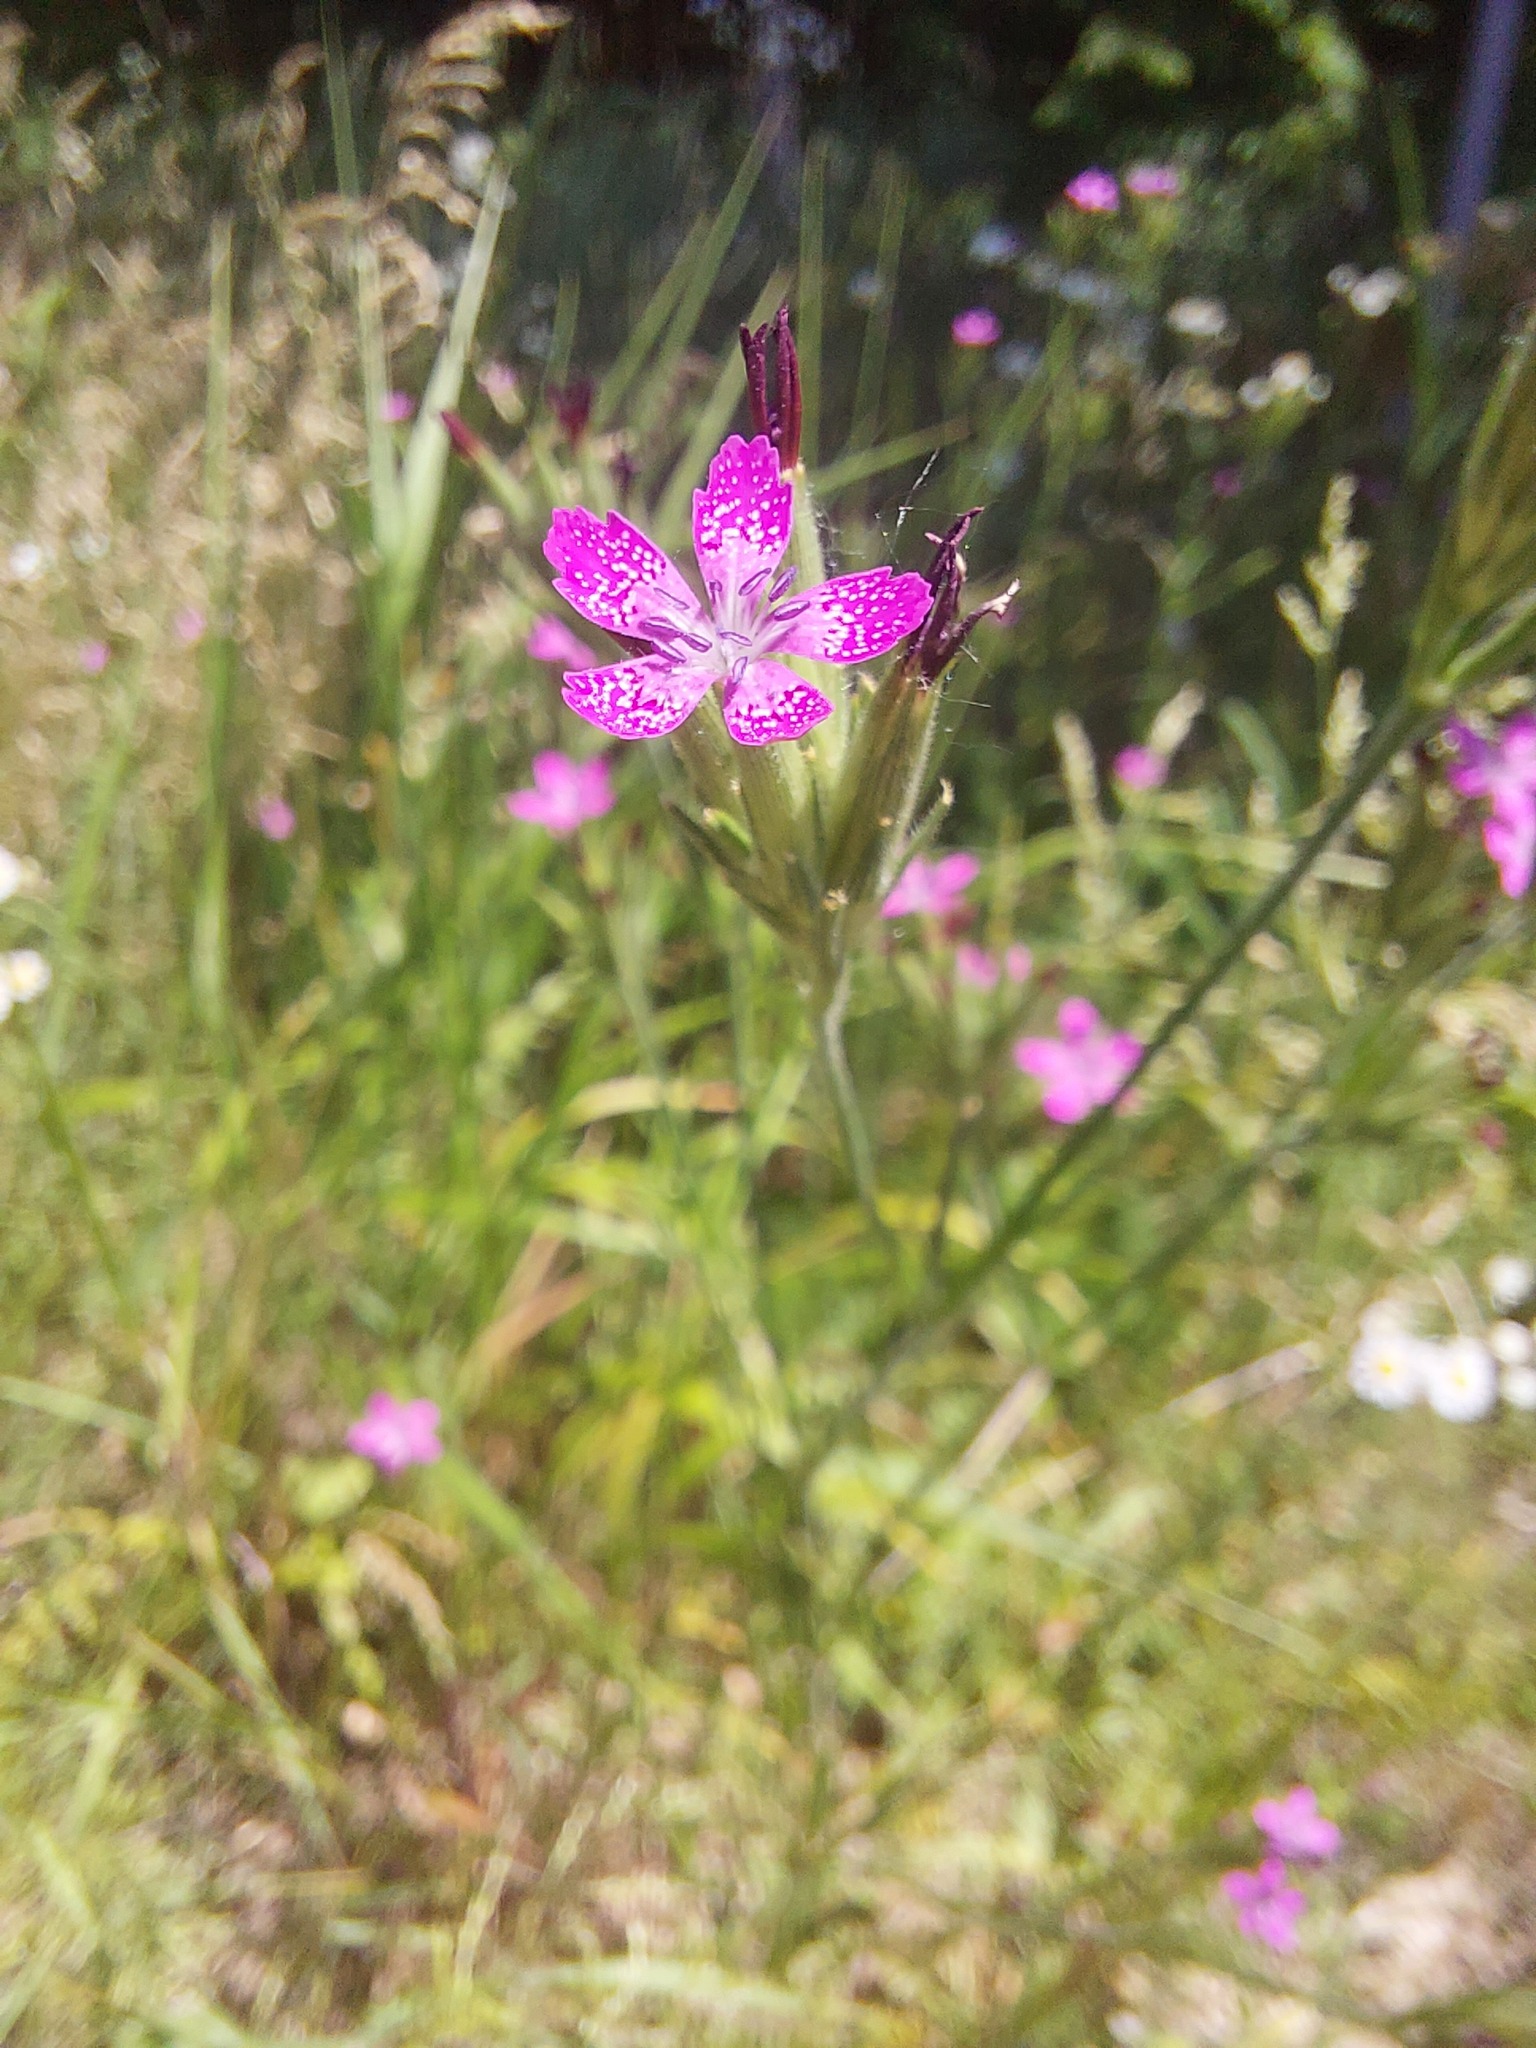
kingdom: Plantae
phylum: Tracheophyta
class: Magnoliopsida
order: Caryophyllales
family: Caryophyllaceae
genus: Dianthus
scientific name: Dianthus armeria
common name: Deptford pink
